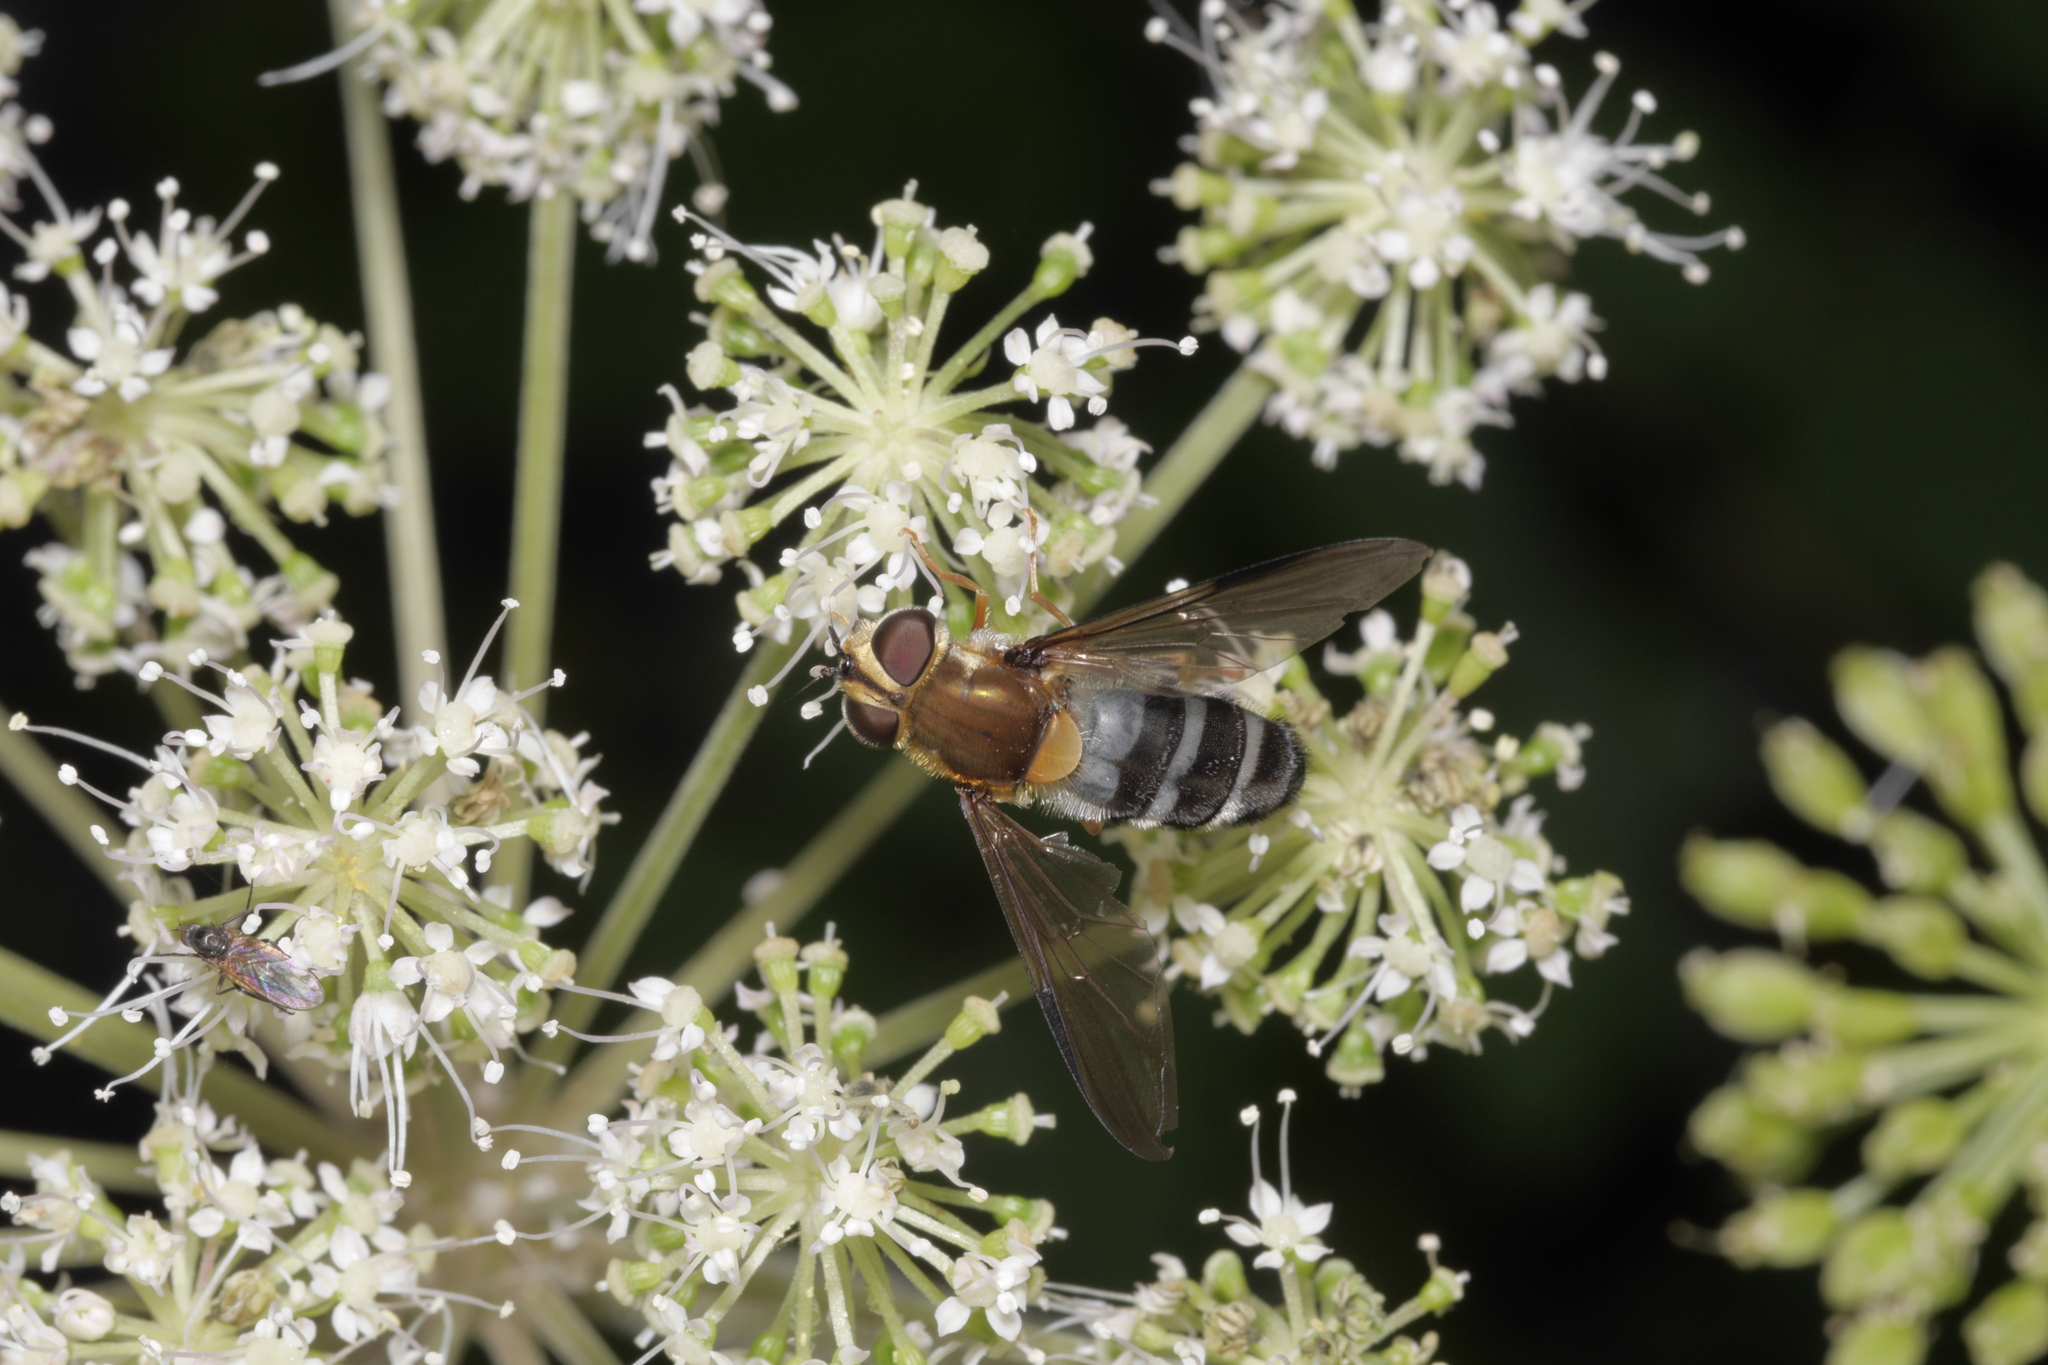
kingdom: Animalia
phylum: Arthropoda
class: Insecta
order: Diptera
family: Syrphidae
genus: Leucozona
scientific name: Leucozona glaucia
